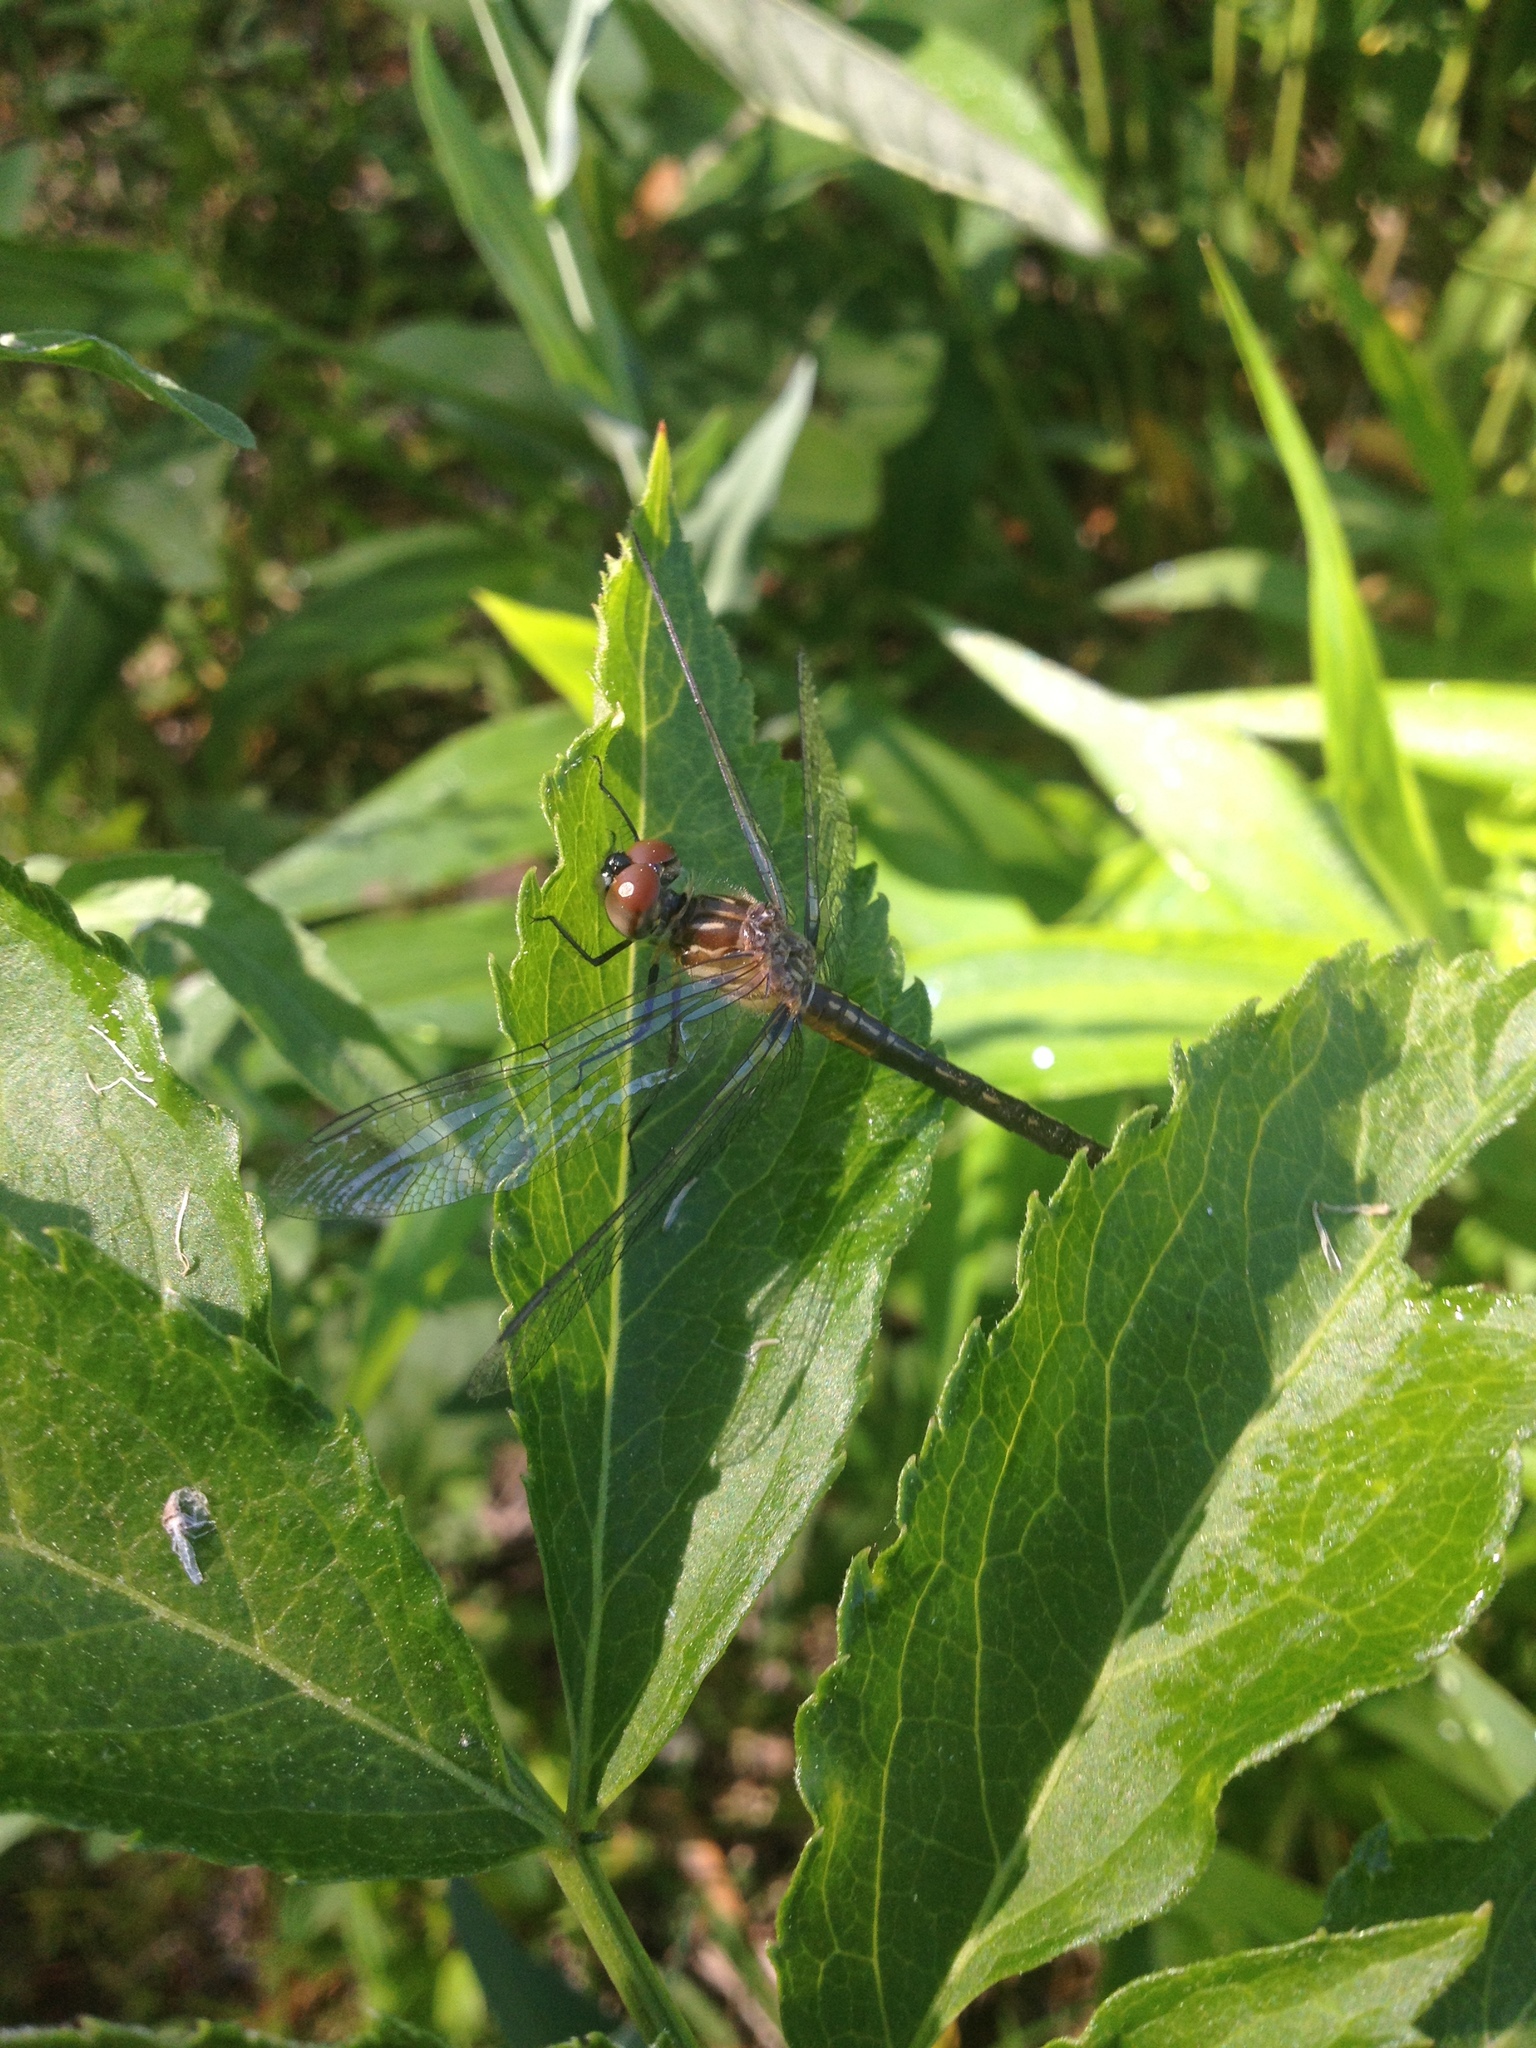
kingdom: Animalia
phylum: Arthropoda
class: Insecta
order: Odonata
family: Libellulidae
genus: Pachydiplax
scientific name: Pachydiplax longipennis
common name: Blue dasher
